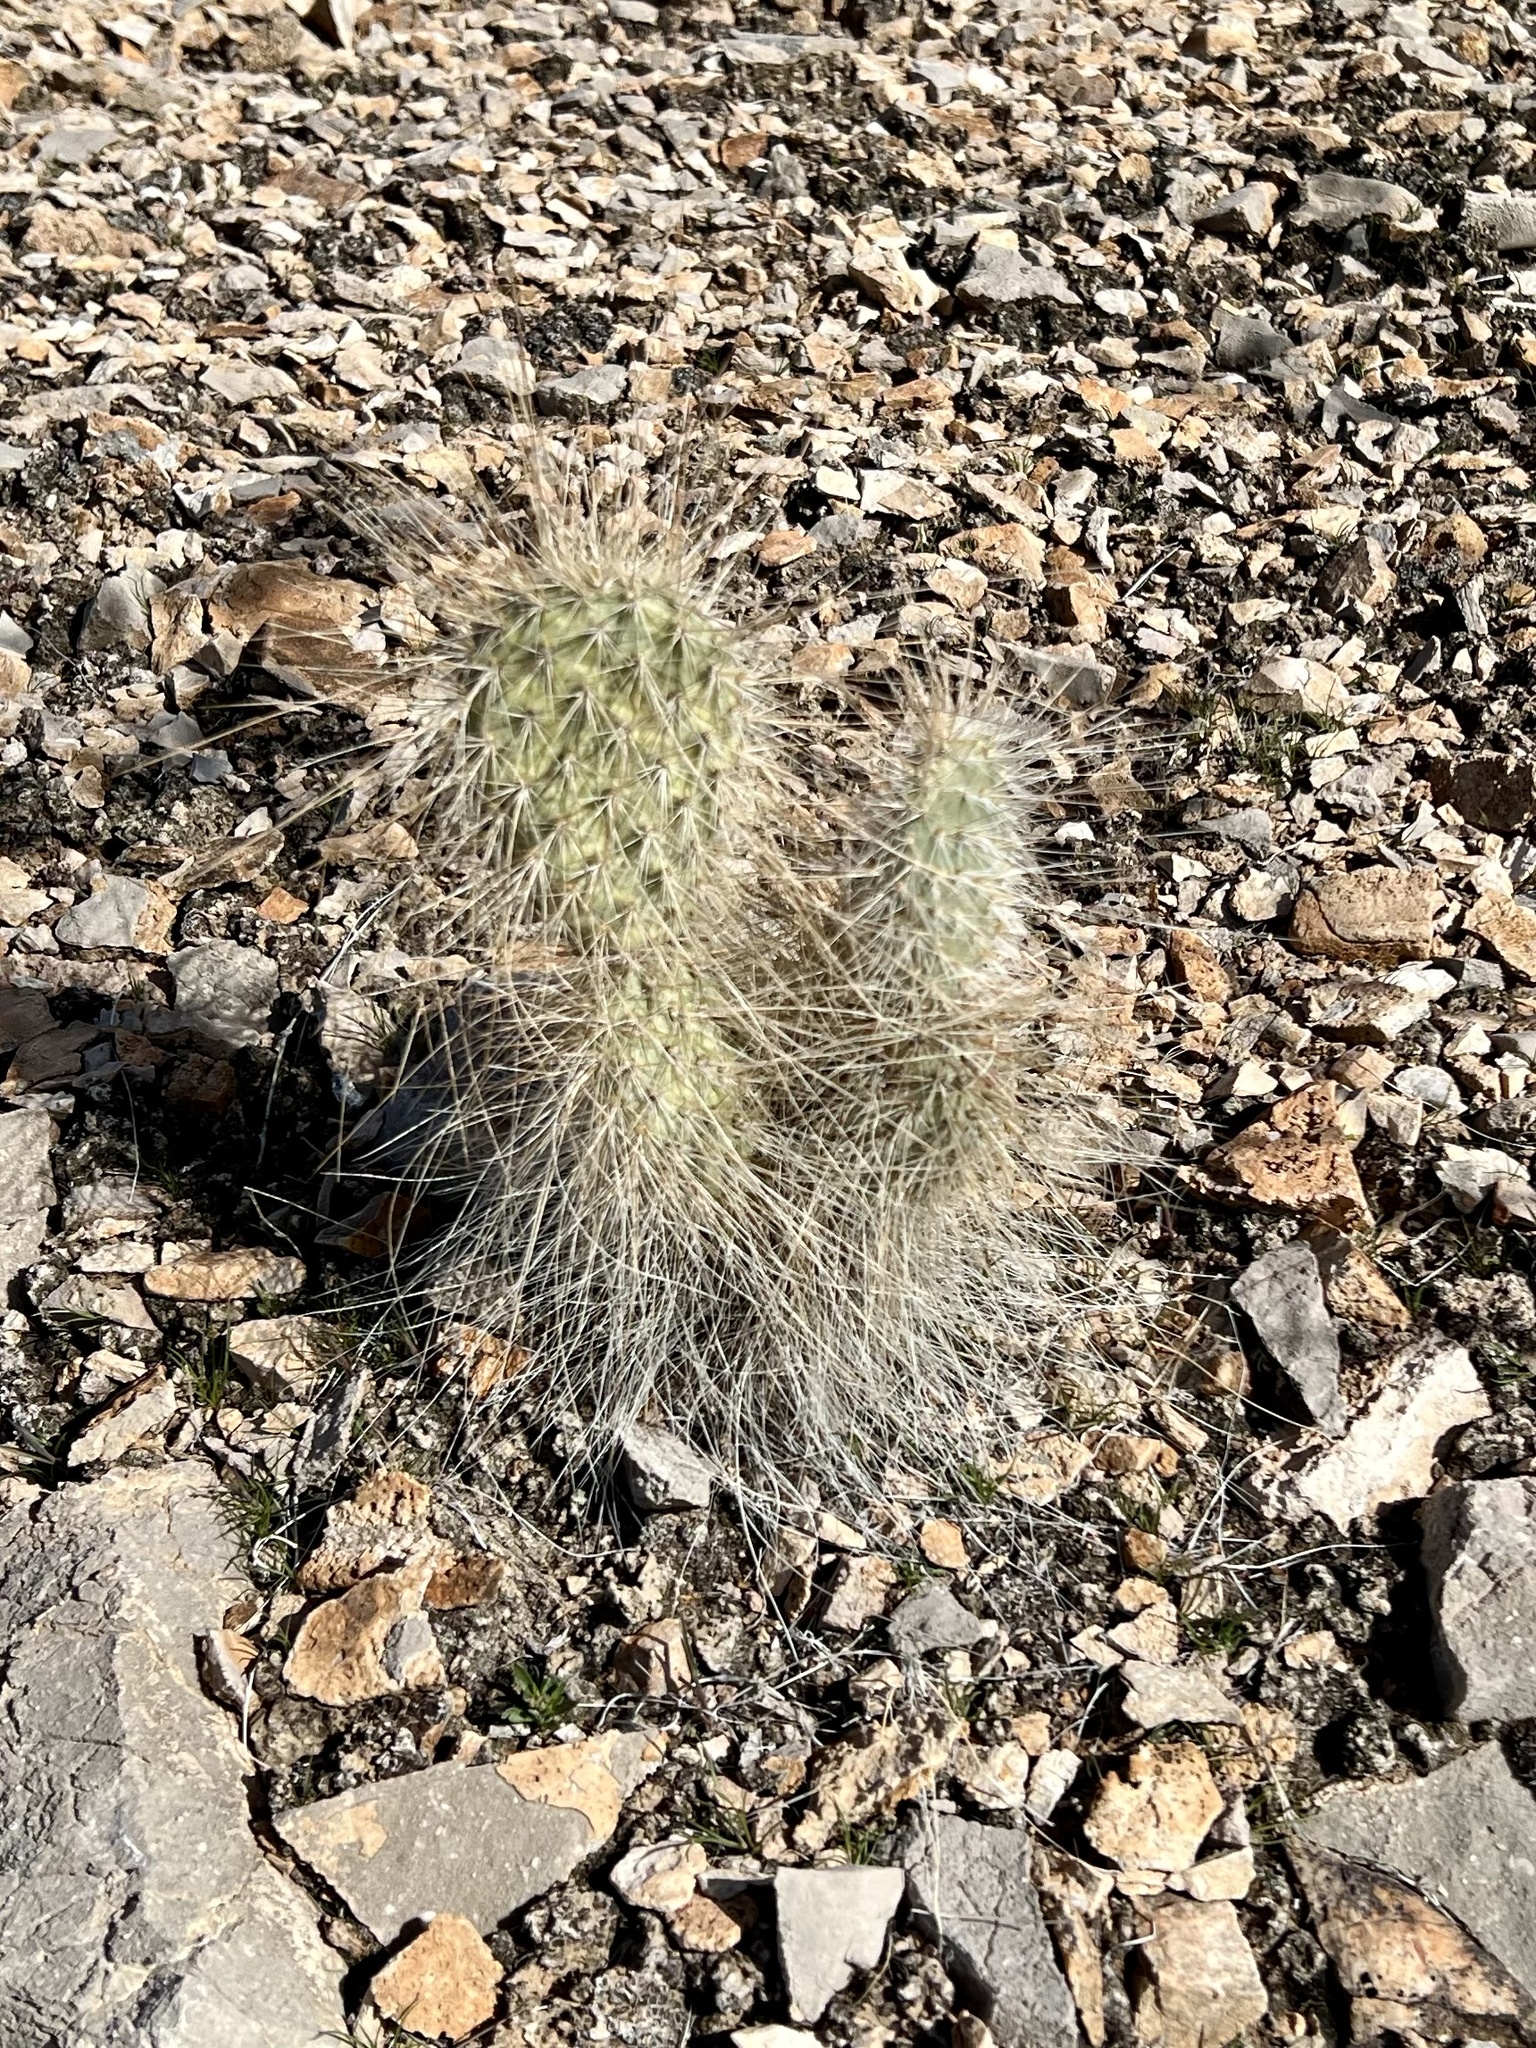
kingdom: Plantae
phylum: Tracheophyta
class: Magnoliopsida
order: Caryophyllales
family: Cactaceae
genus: Opuntia
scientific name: Opuntia polyacantha
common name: Plains prickly-pear
